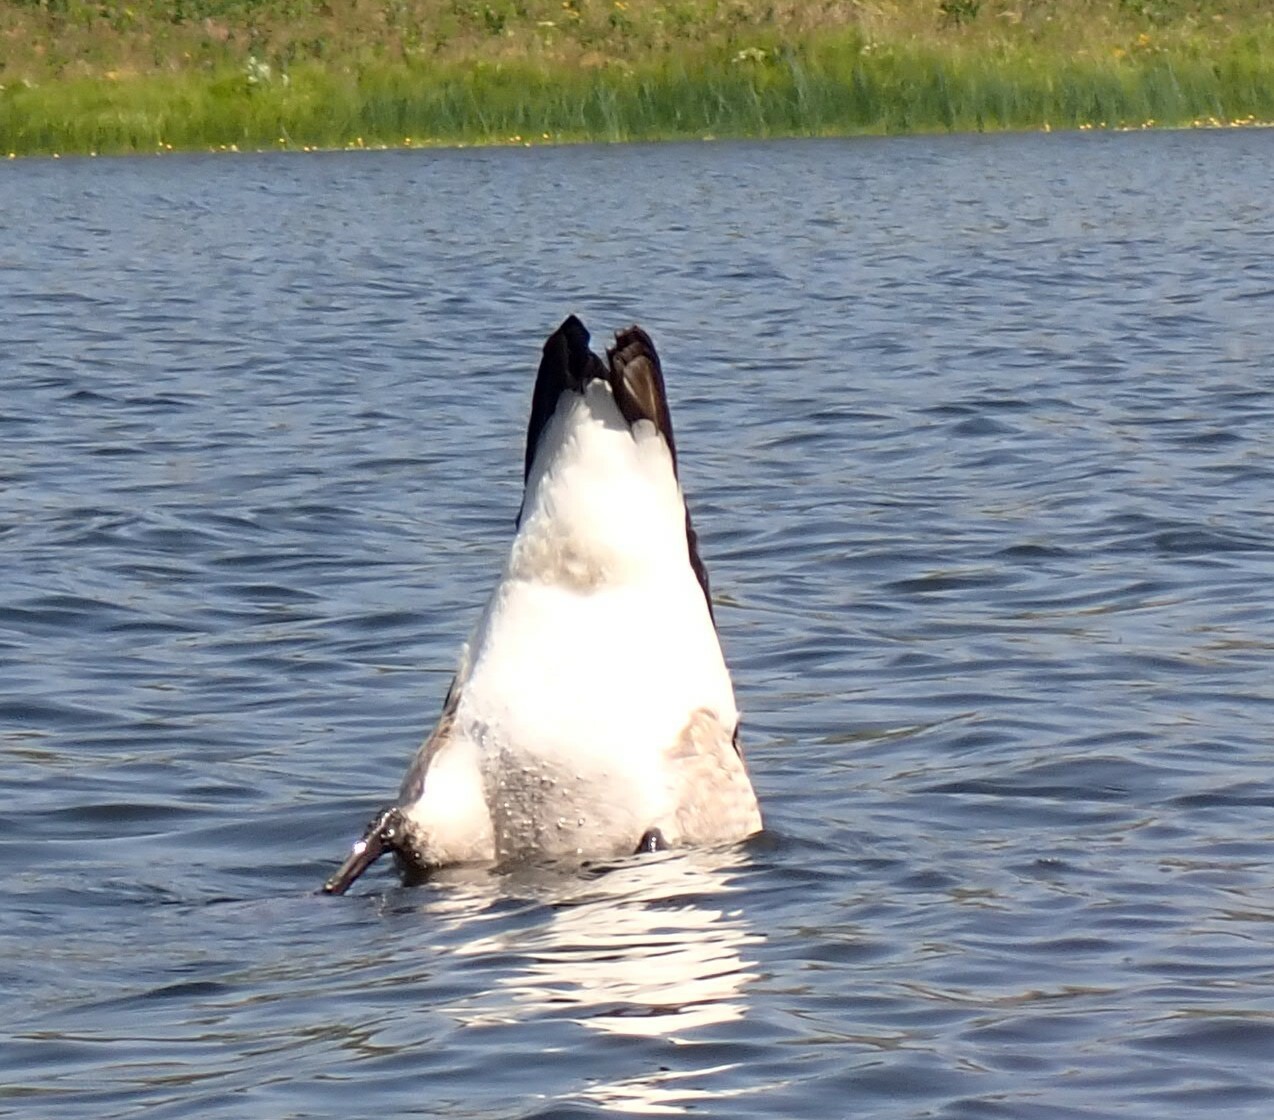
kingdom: Animalia
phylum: Chordata
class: Aves
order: Anseriformes
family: Anatidae
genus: Branta
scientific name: Branta canadensis
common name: Canada goose
